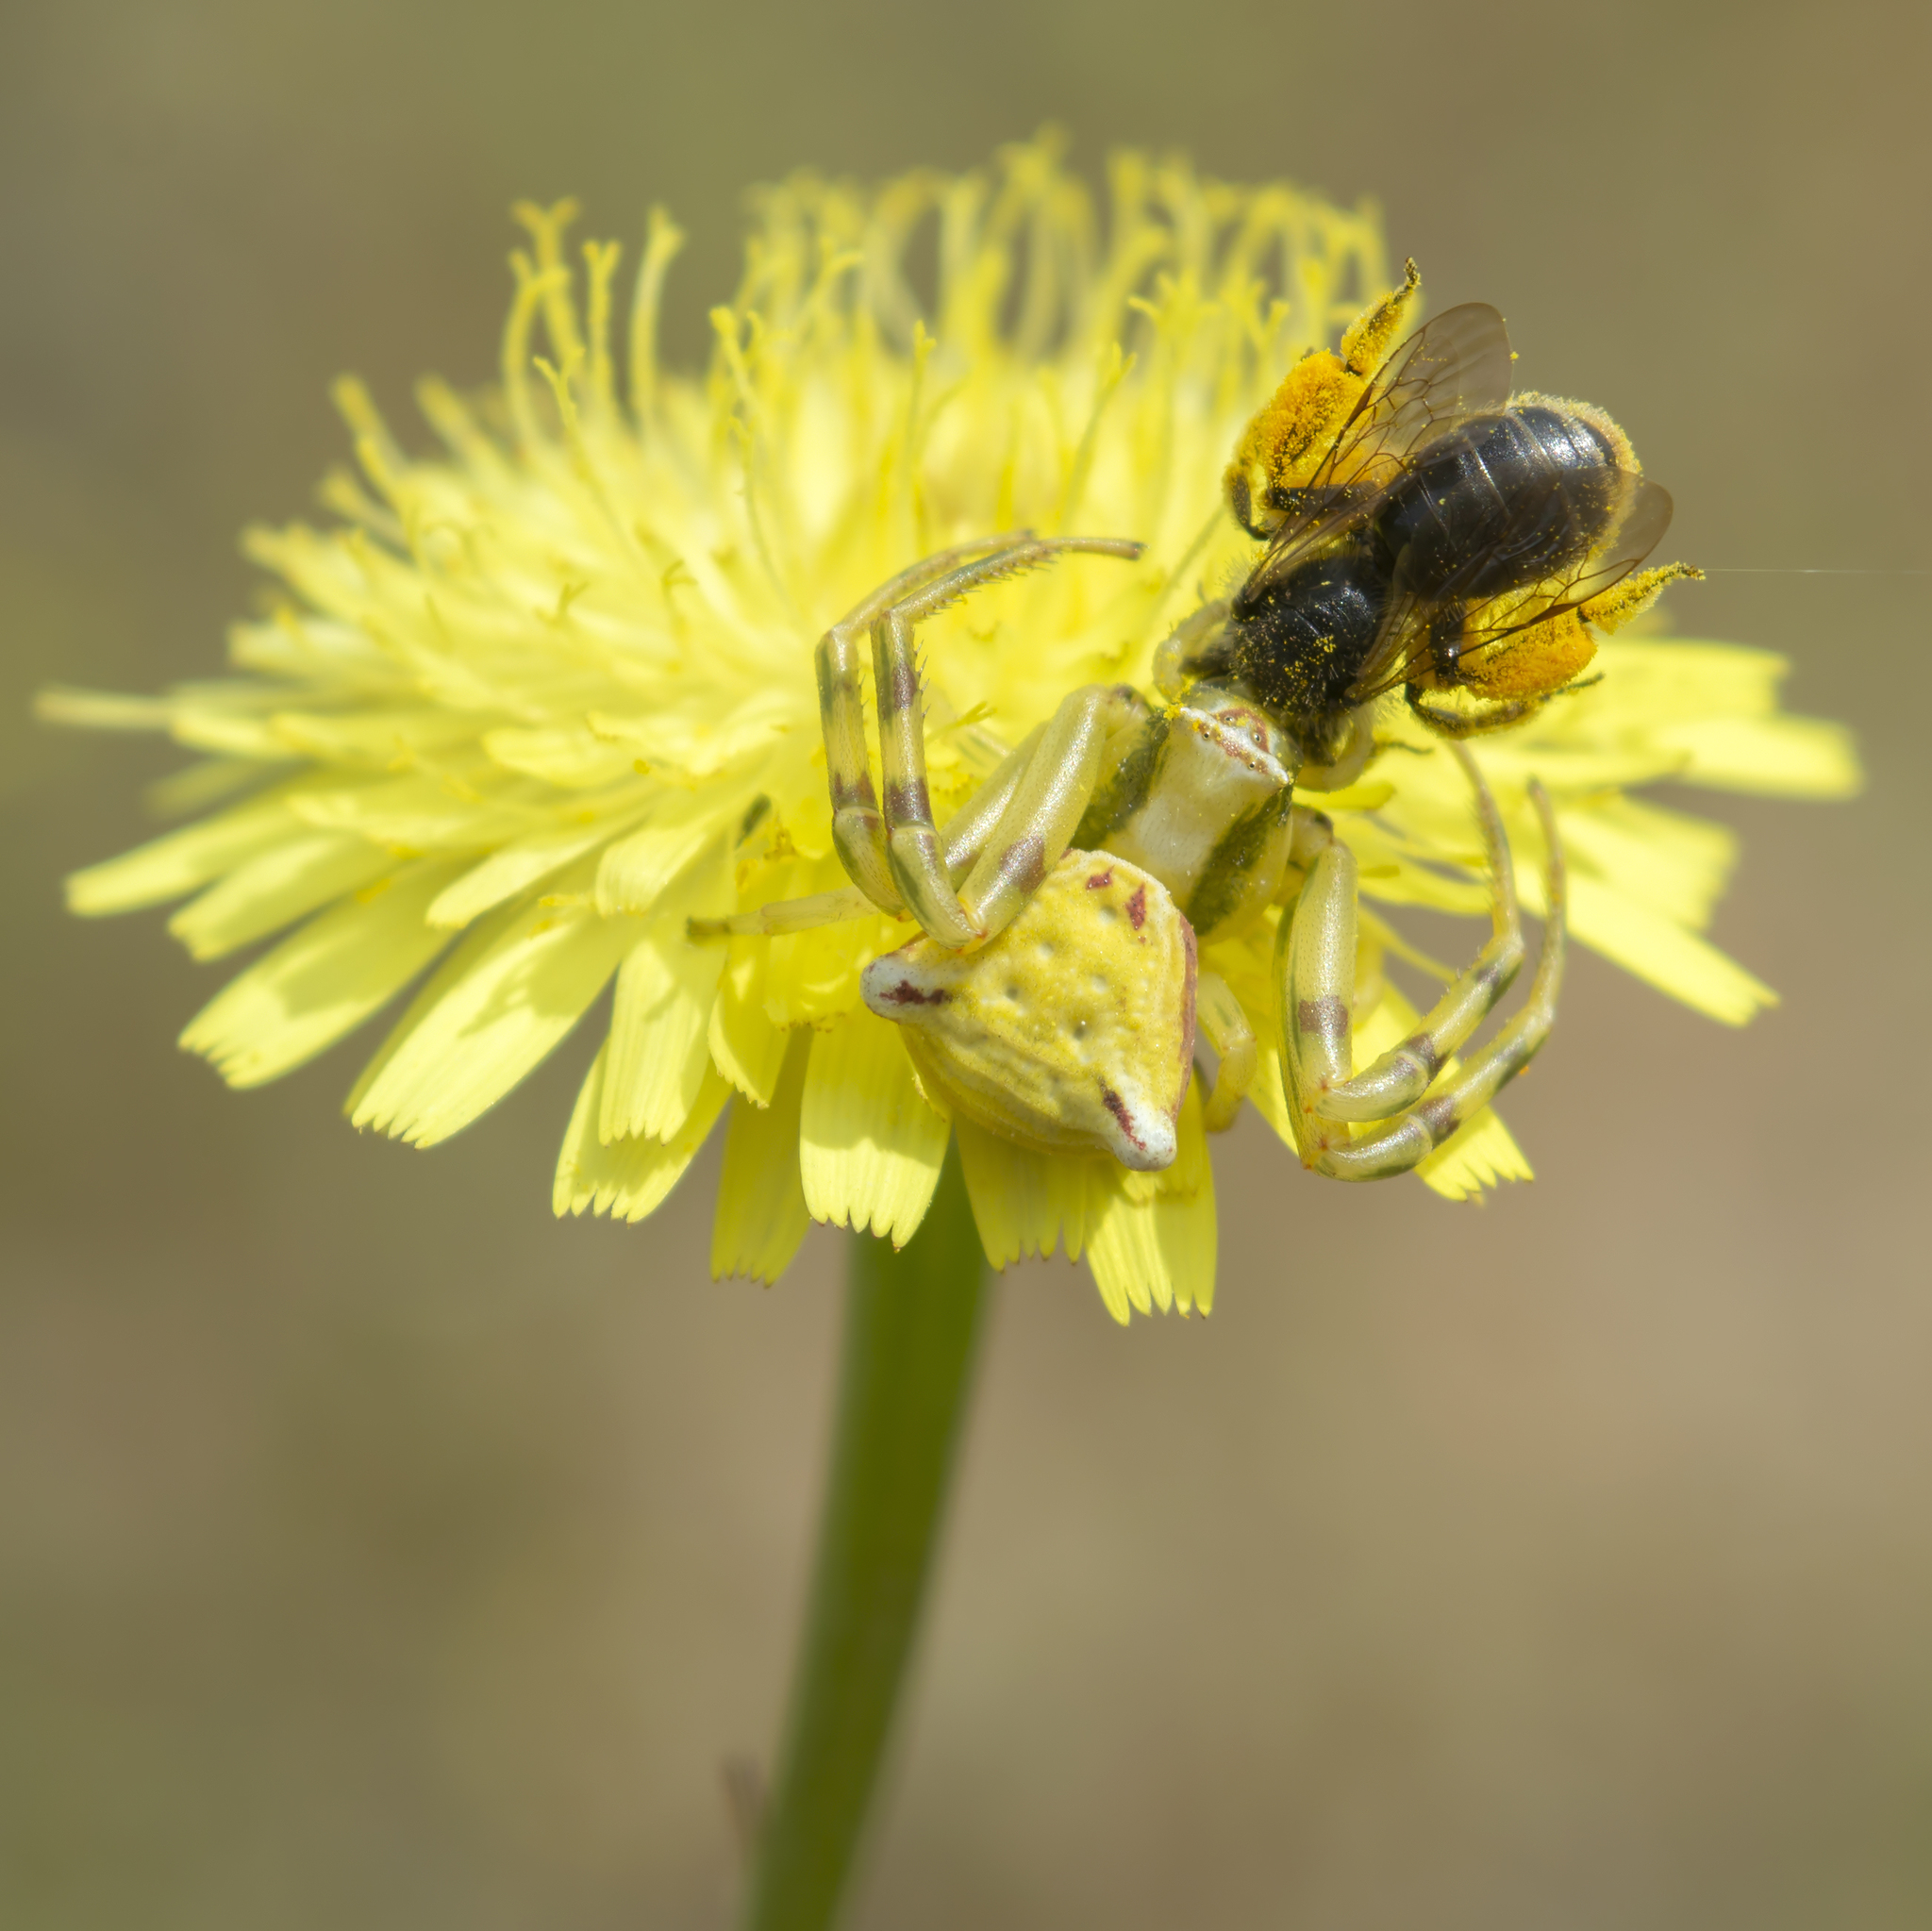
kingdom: Animalia
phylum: Arthropoda
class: Arachnida
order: Araneae
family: Thomisidae
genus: Thomisus
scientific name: Thomisus onustus
